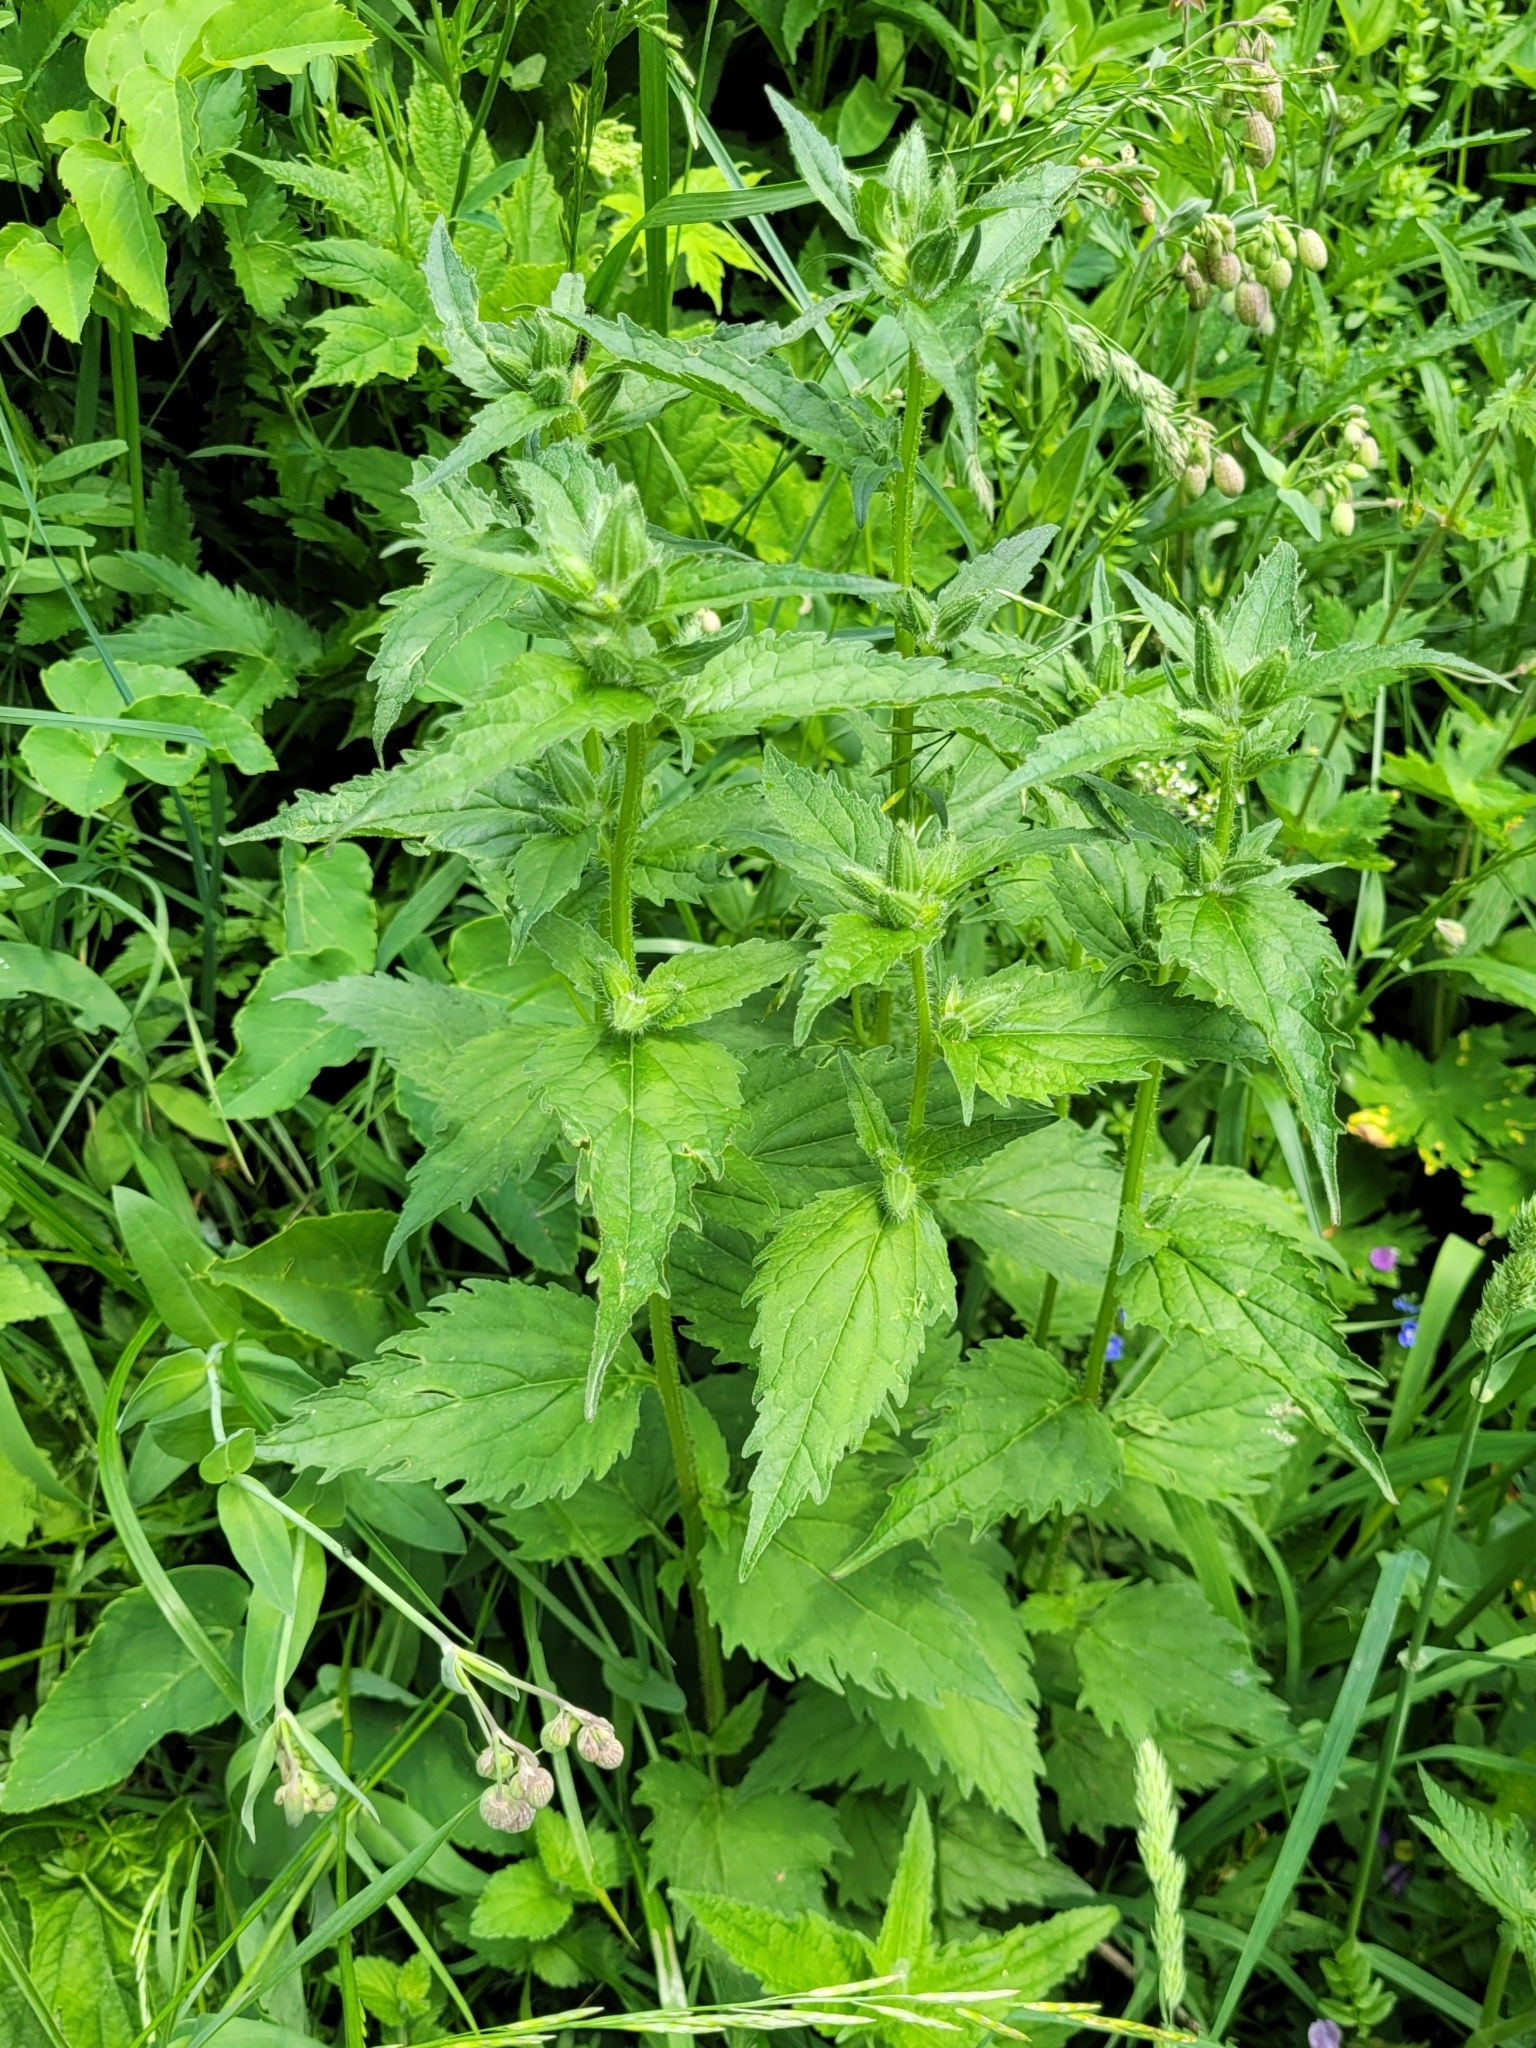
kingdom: Plantae
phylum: Tracheophyta
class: Magnoliopsida
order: Asterales
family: Campanulaceae
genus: Campanula
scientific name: Campanula trachelium
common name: Nettle-leaved bellflower
